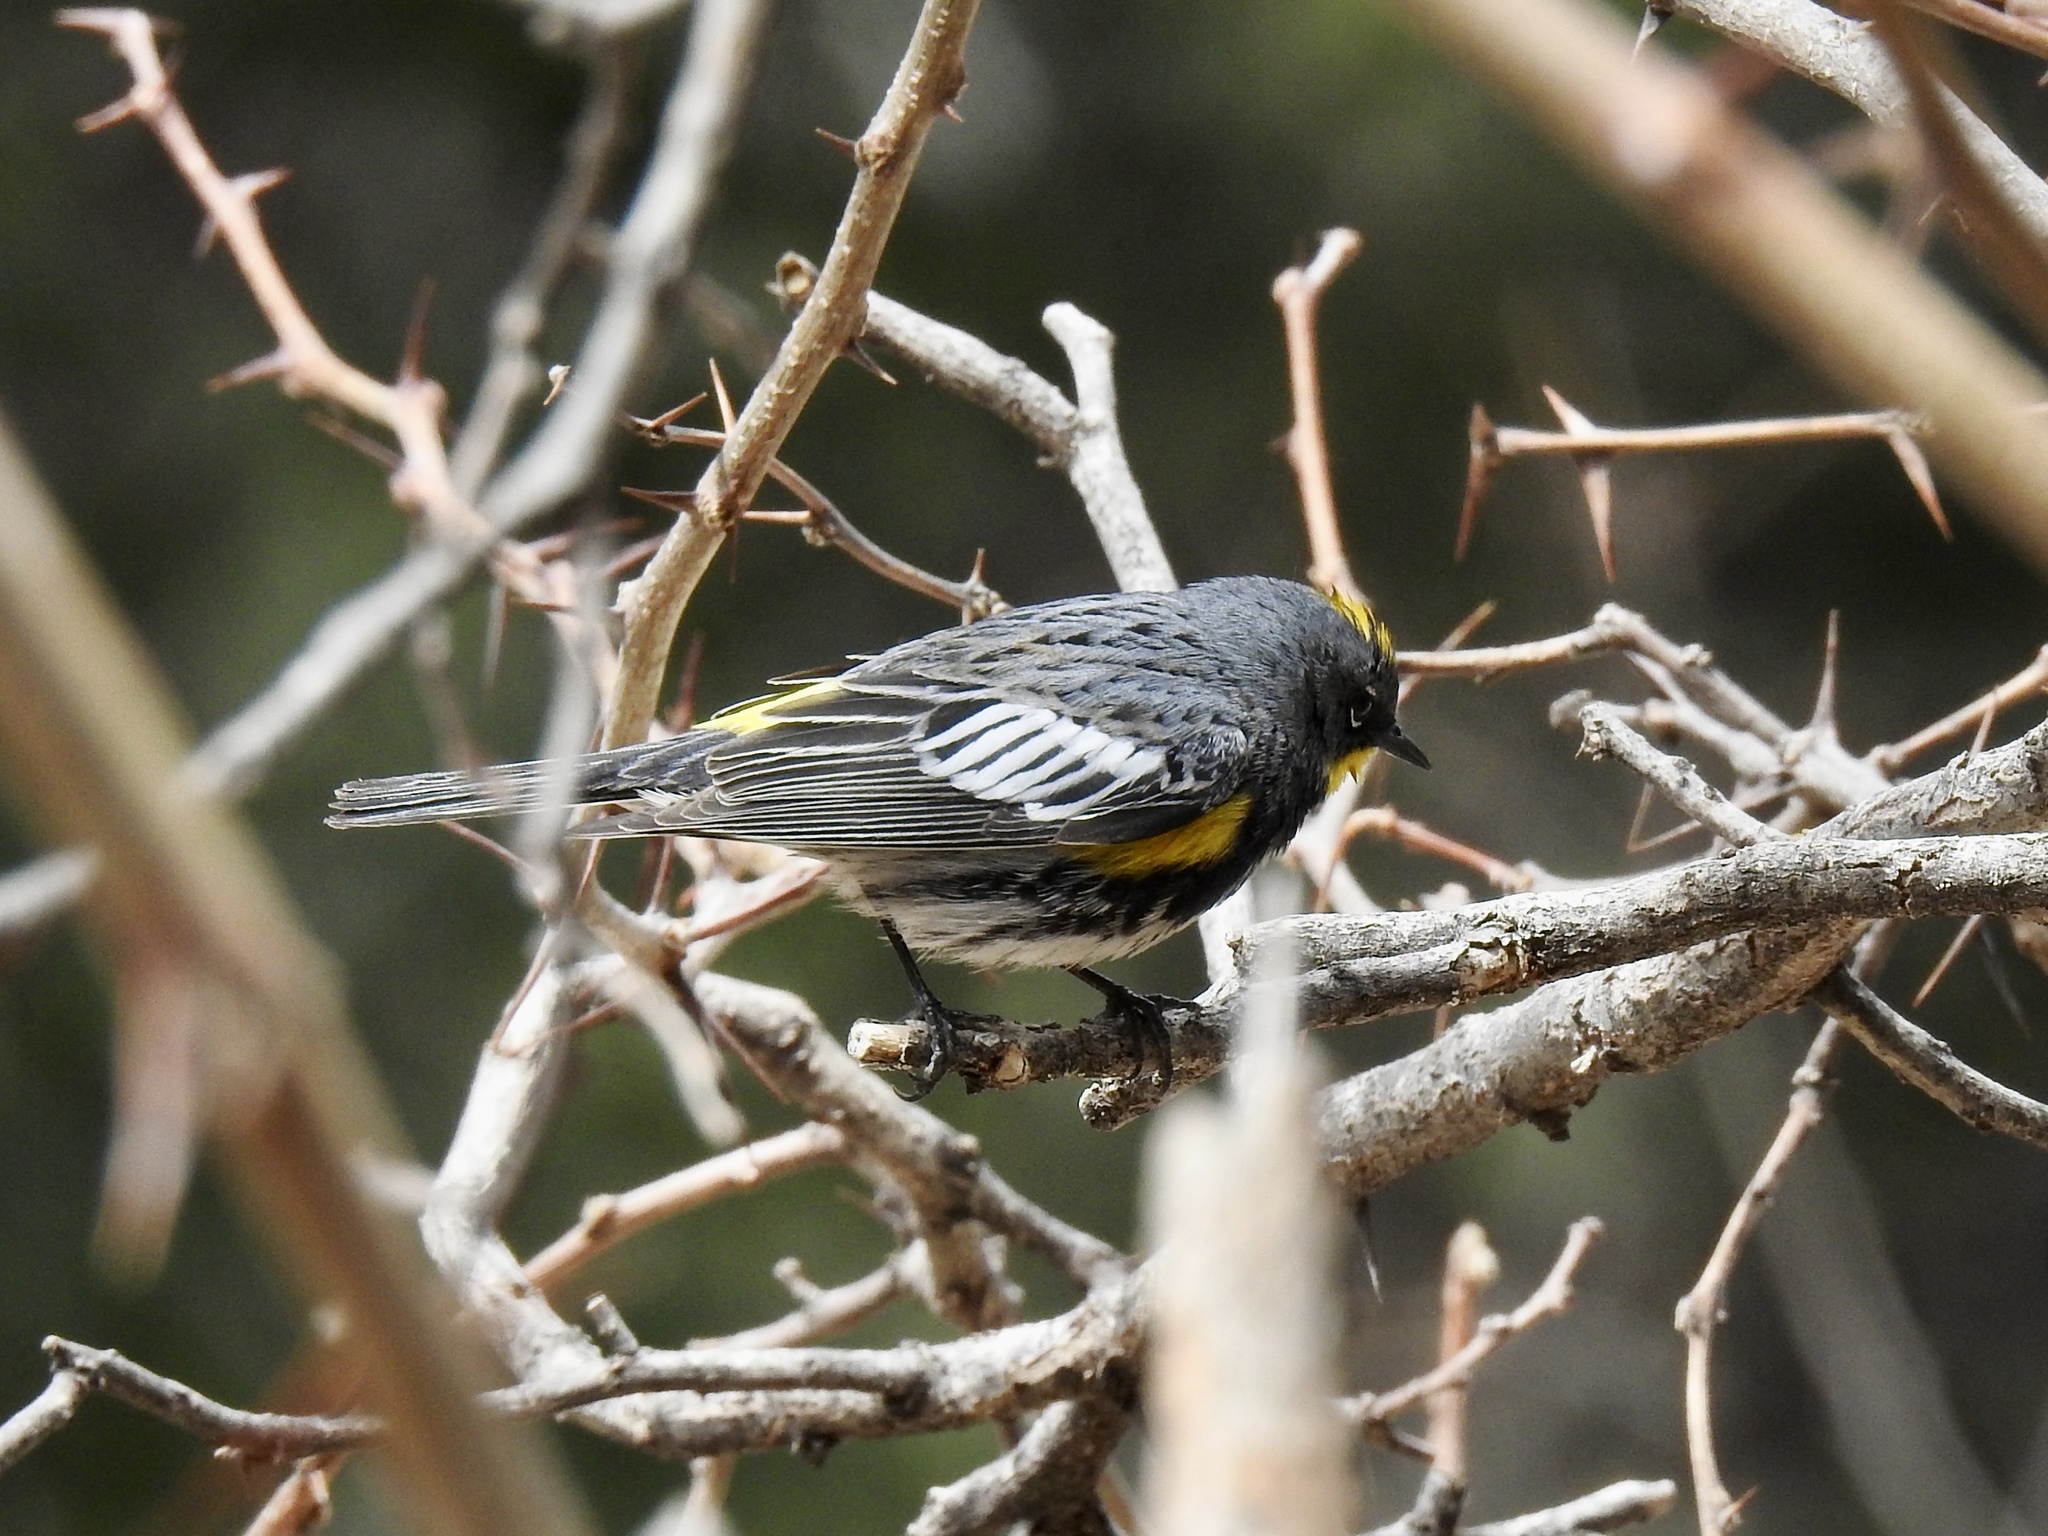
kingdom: Animalia
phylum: Chordata
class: Aves
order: Passeriformes
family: Parulidae
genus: Setophaga
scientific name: Setophaga coronata
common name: Myrtle warbler
